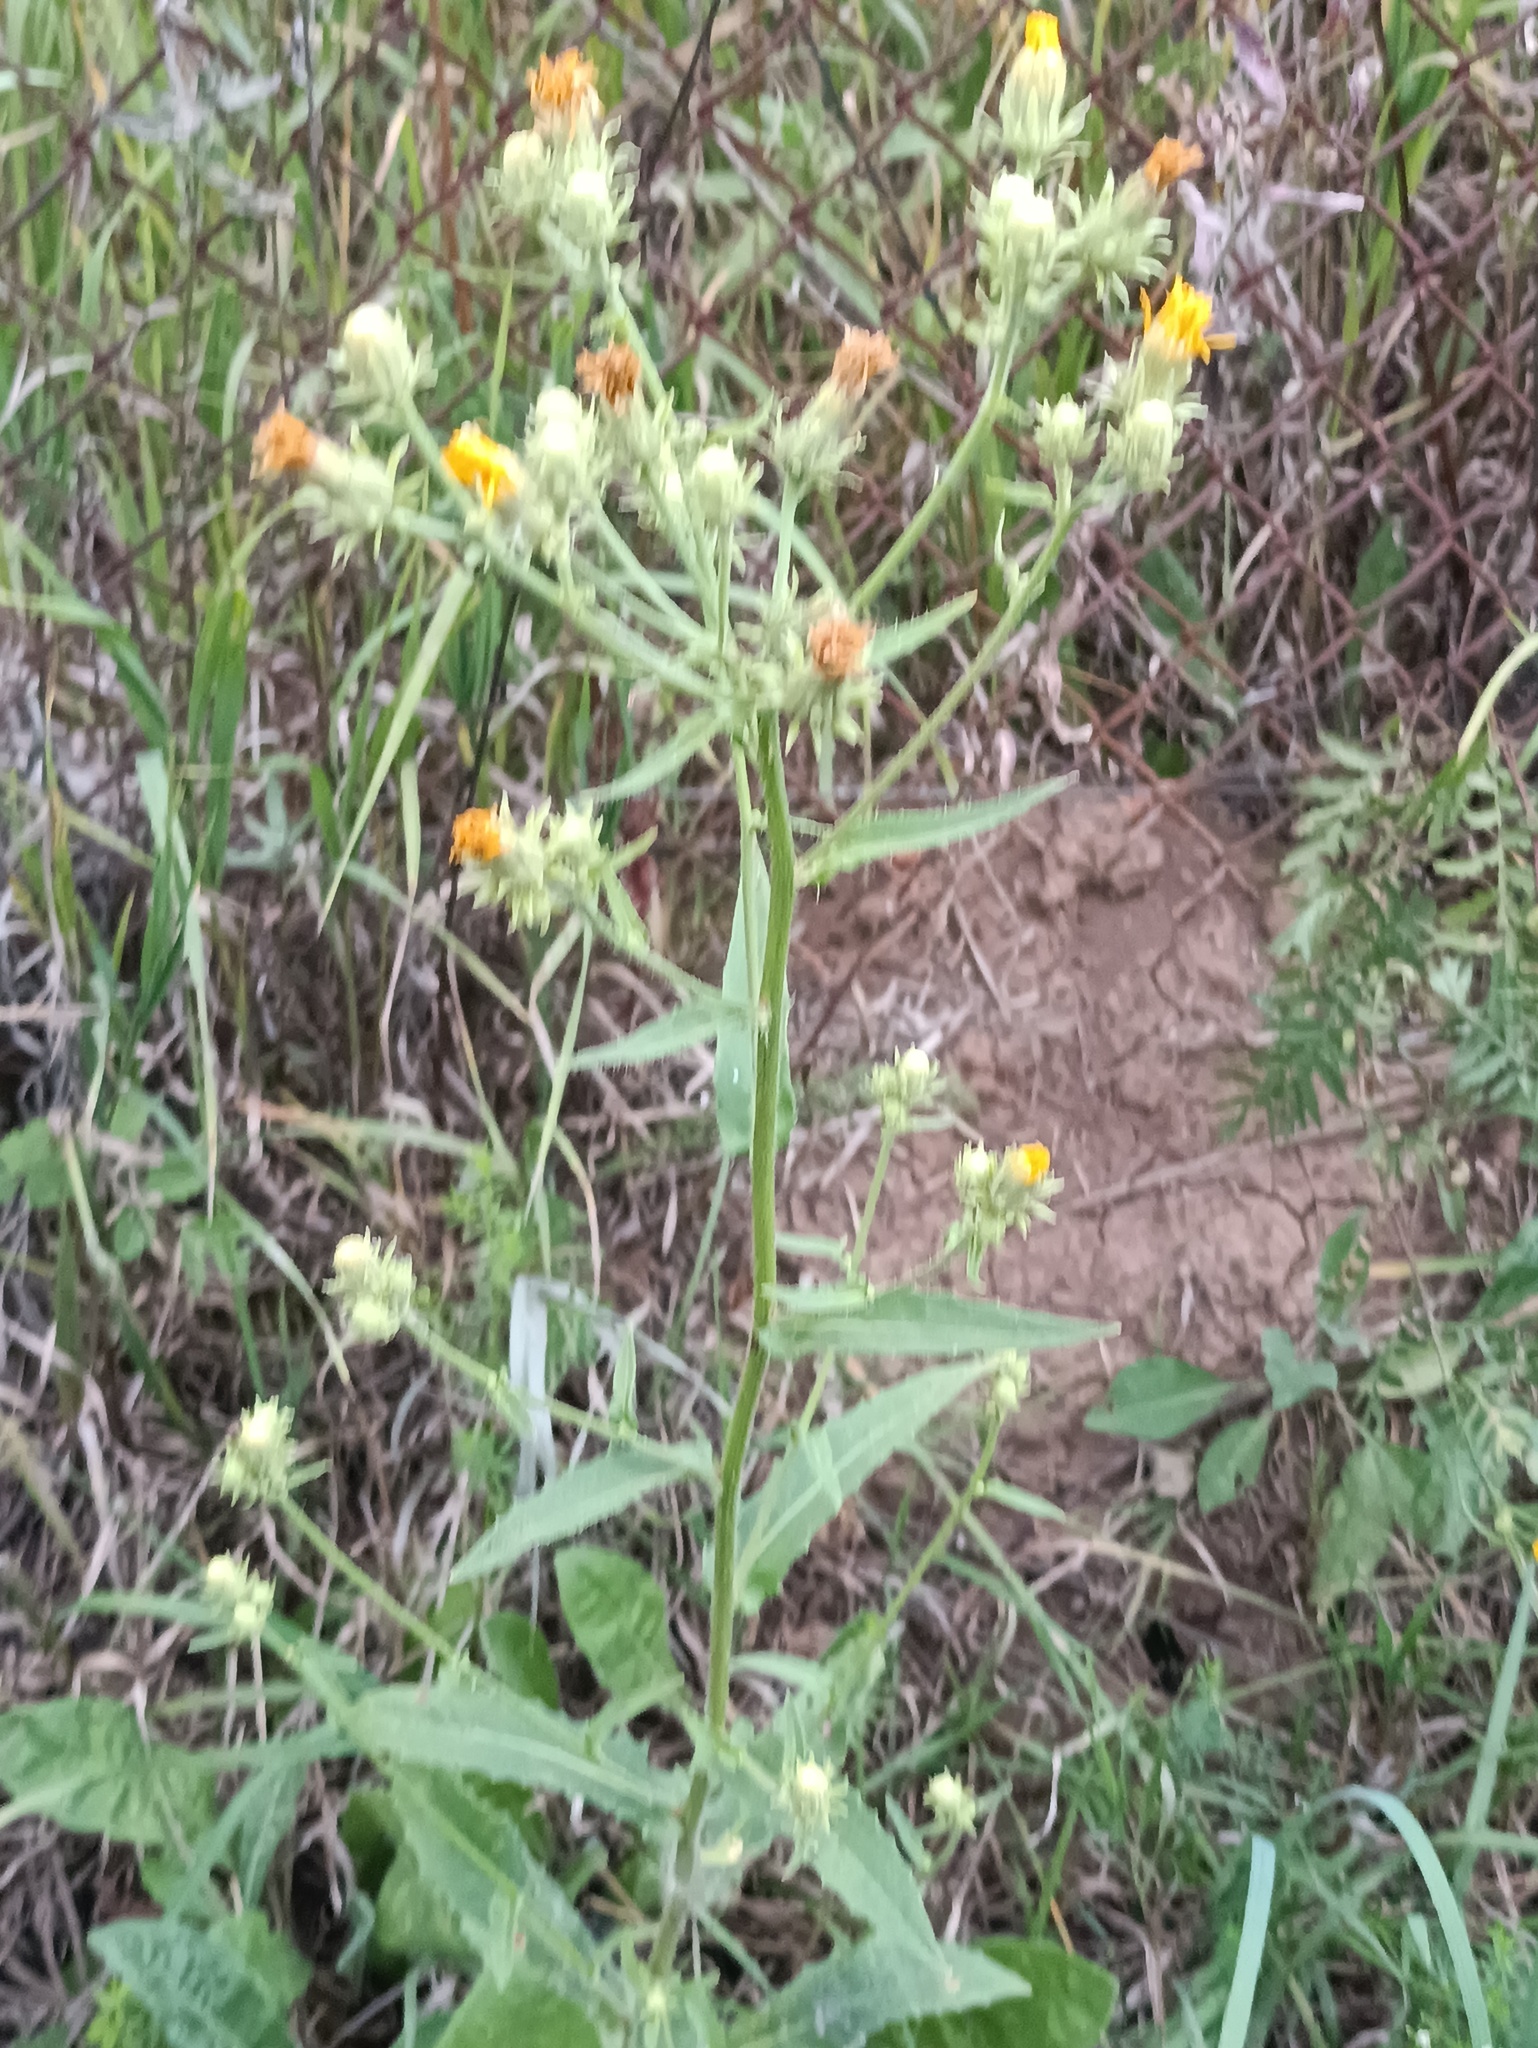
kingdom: Plantae
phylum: Tracheophyta
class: Magnoliopsida
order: Asterales
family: Asteraceae
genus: Picris
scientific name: Picris hieracioides
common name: Hawkweed oxtongue
